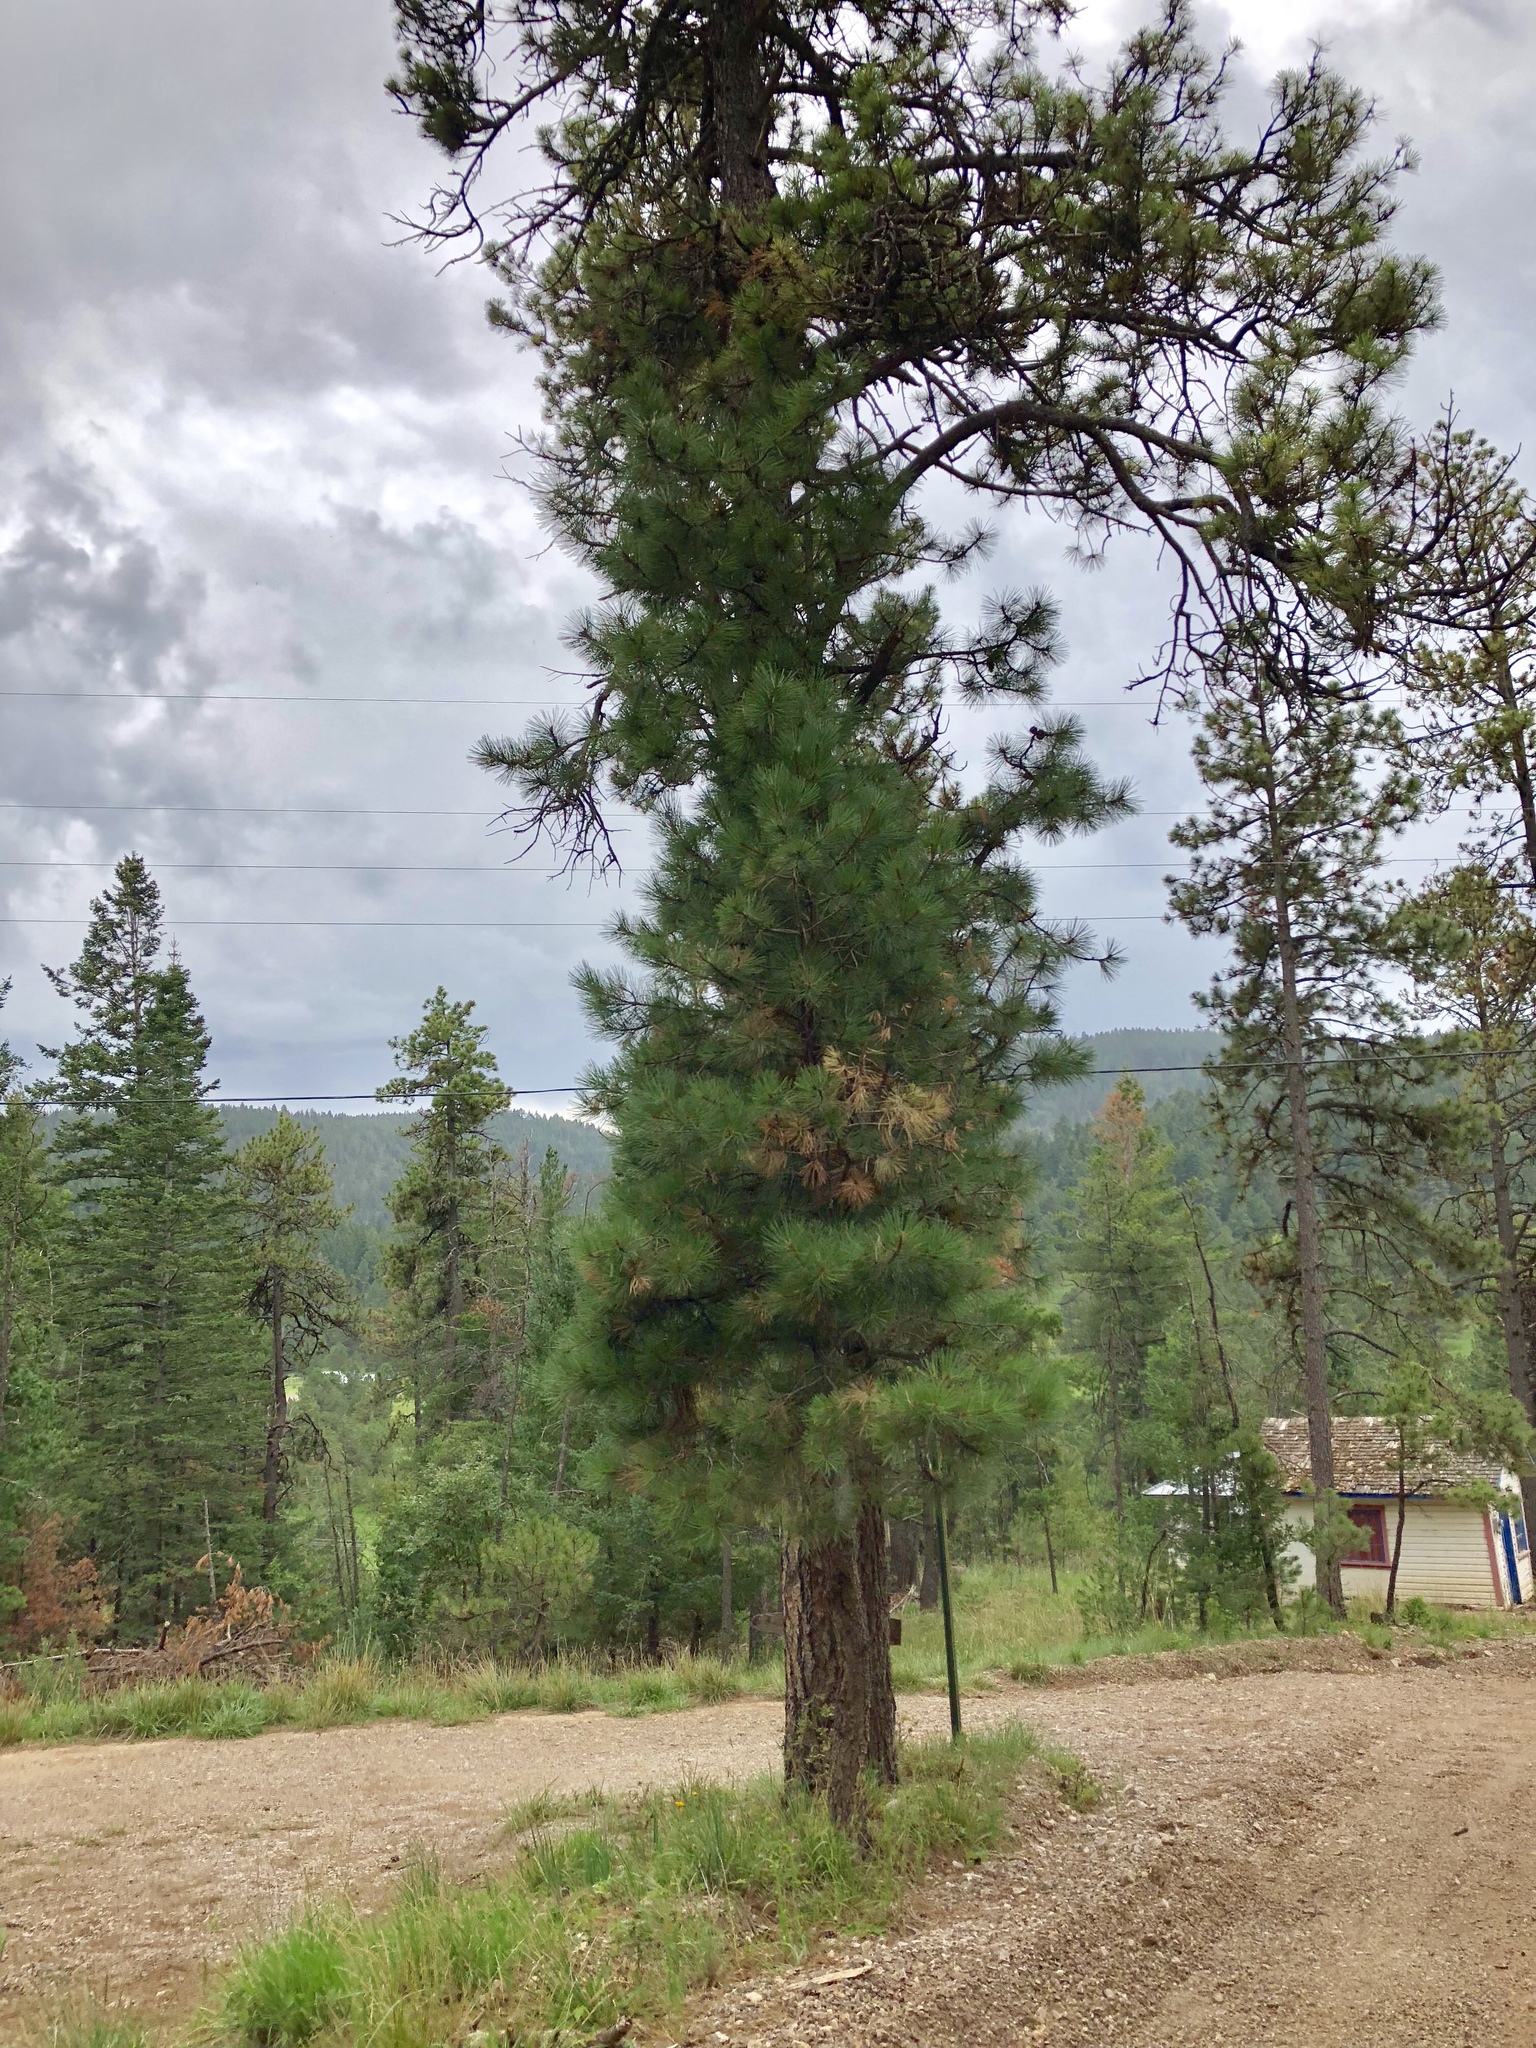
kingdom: Plantae
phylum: Tracheophyta
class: Pinopsida
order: Pinales
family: Pinaceae
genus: Pinus
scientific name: Pinus ponderosa
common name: Western yellow-pine
